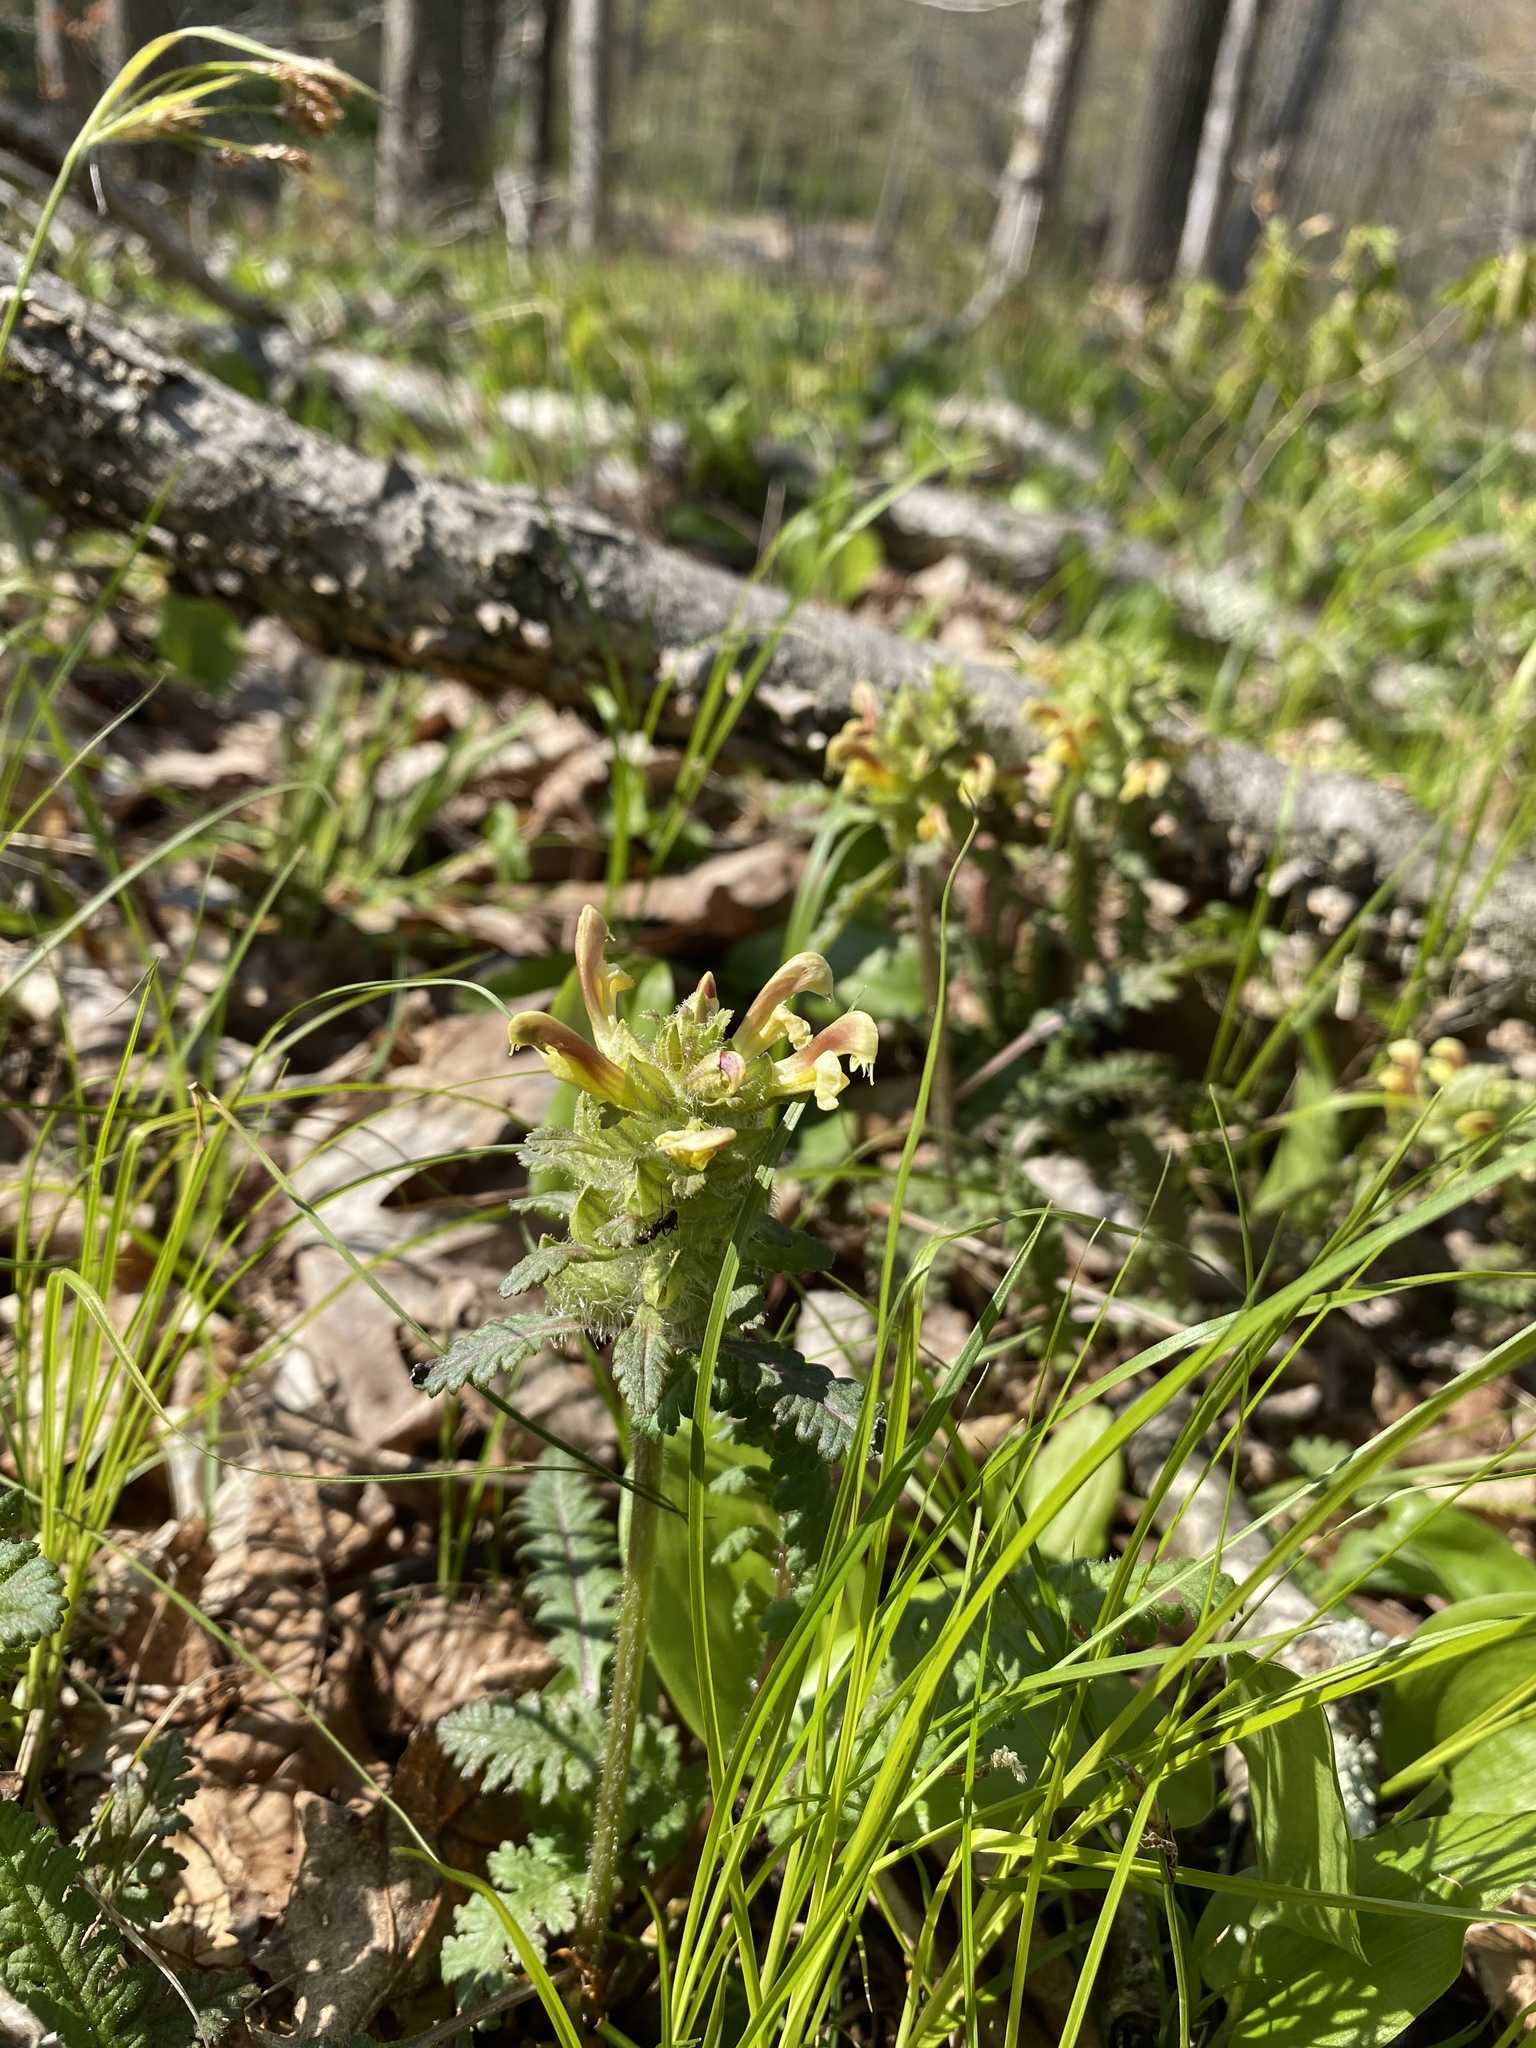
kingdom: Plantae
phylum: Tracheophyta
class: Magnoliopsida
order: Lamiales
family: Orobanchaceae
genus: Pedicularis
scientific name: Pedicularis canadensis
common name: Early lousewort
